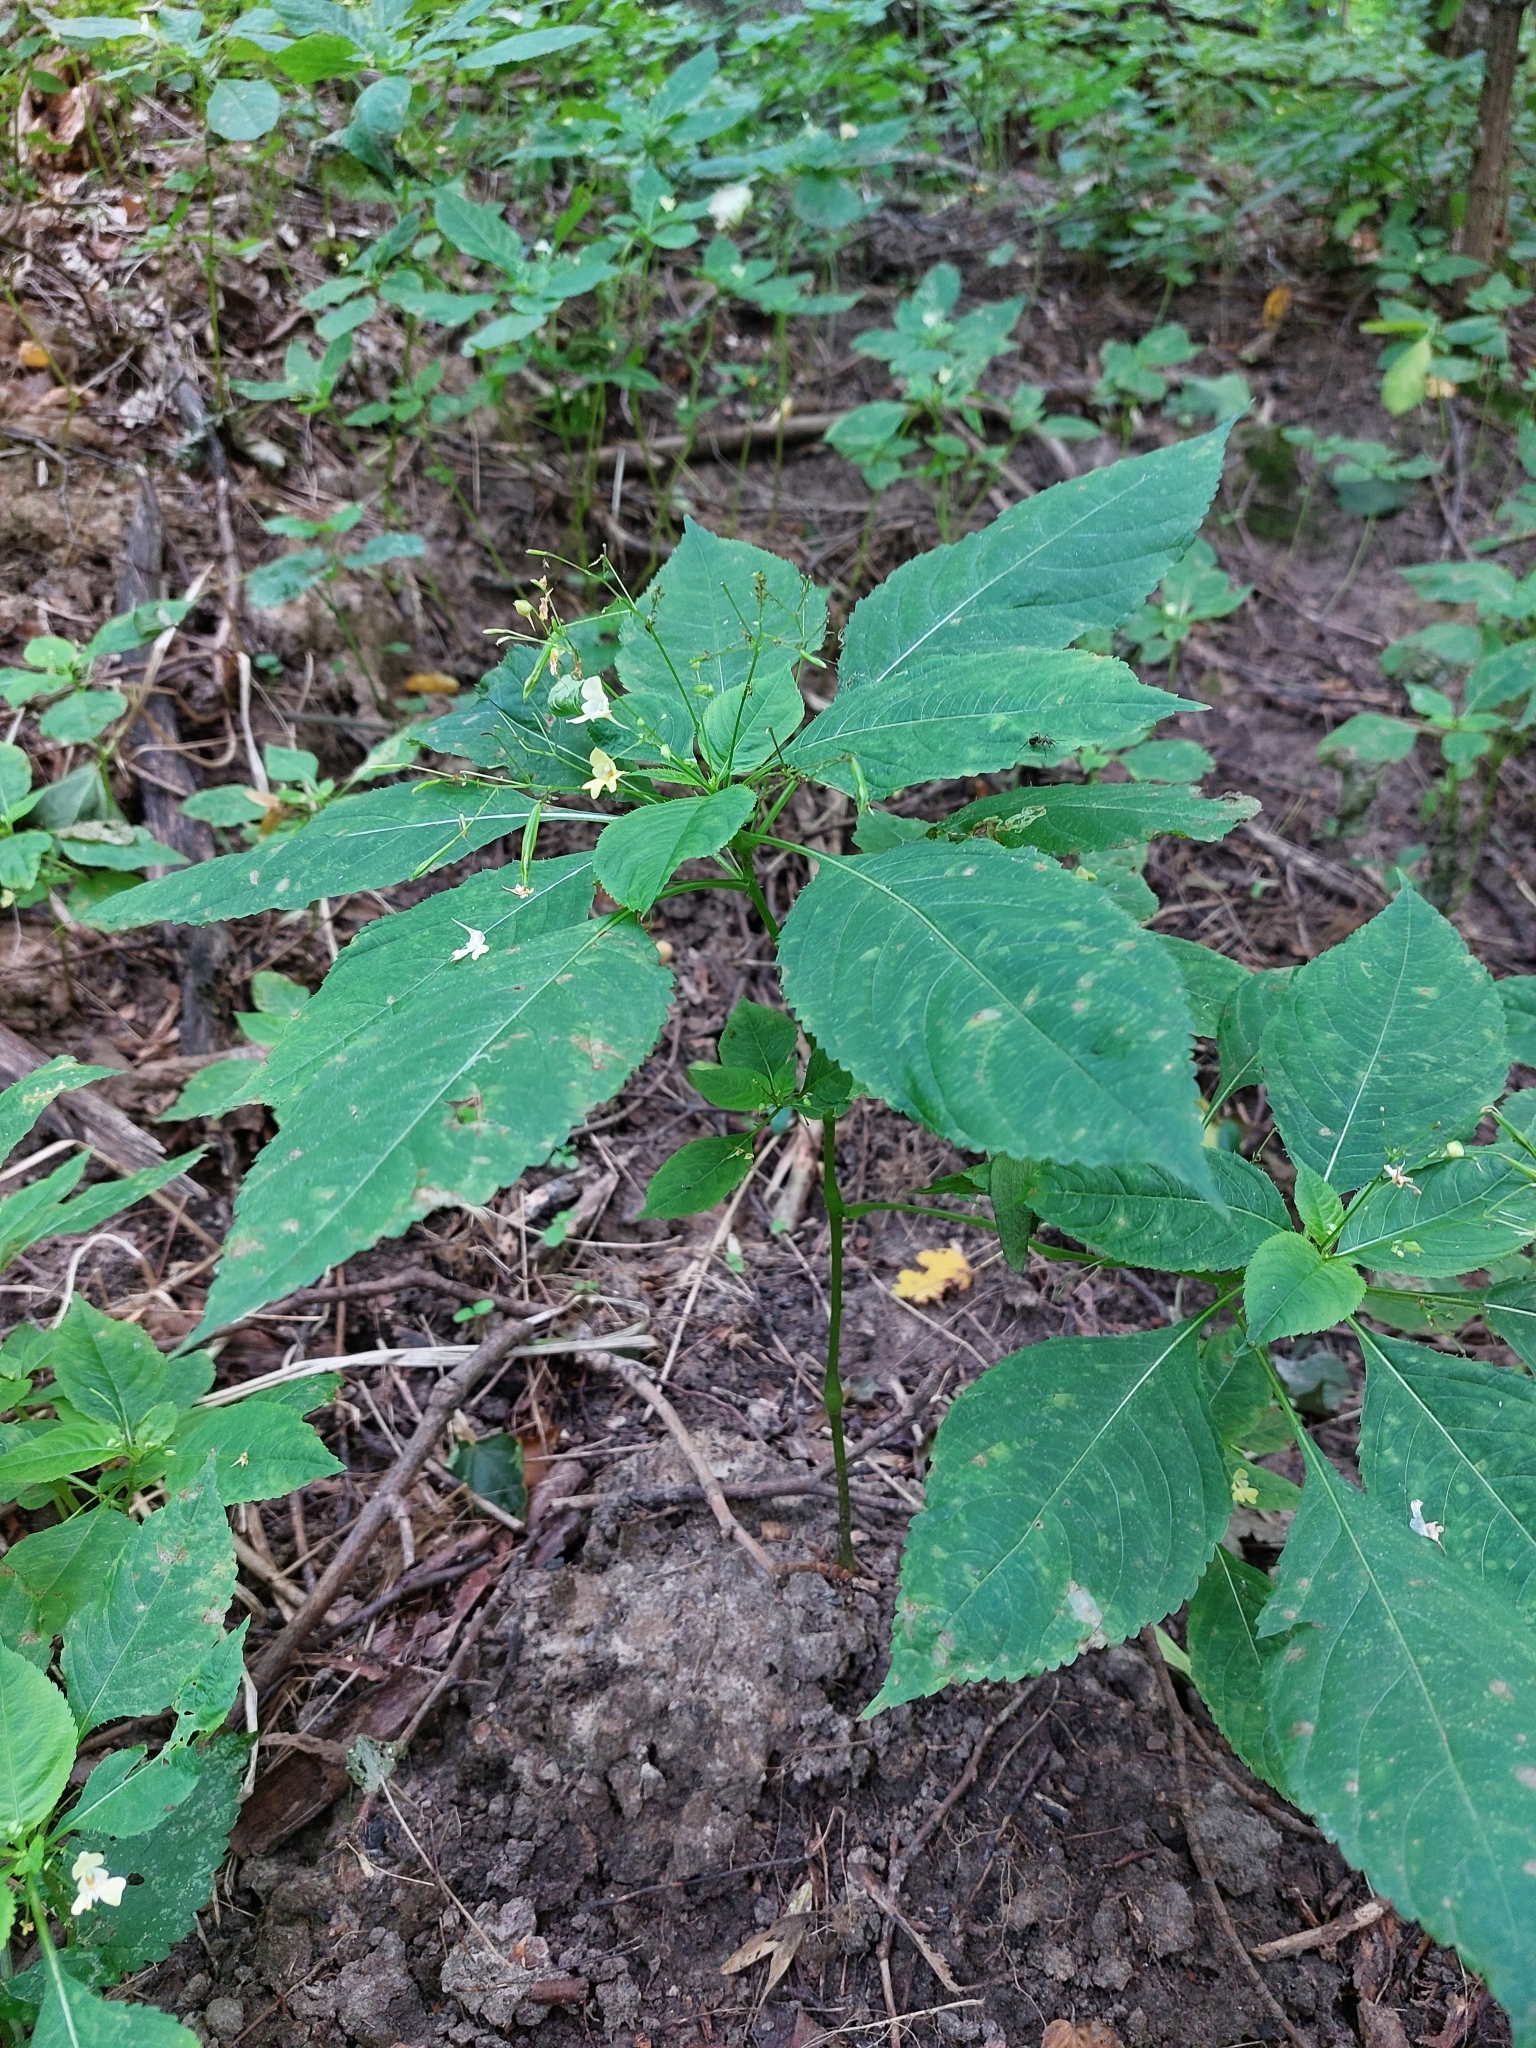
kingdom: Plantae
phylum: Tracheophyta
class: Magnoliopsida
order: Ericales
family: Balsaminaceae
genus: Impatiens
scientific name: Impatiens parviflora
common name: Small balsam
